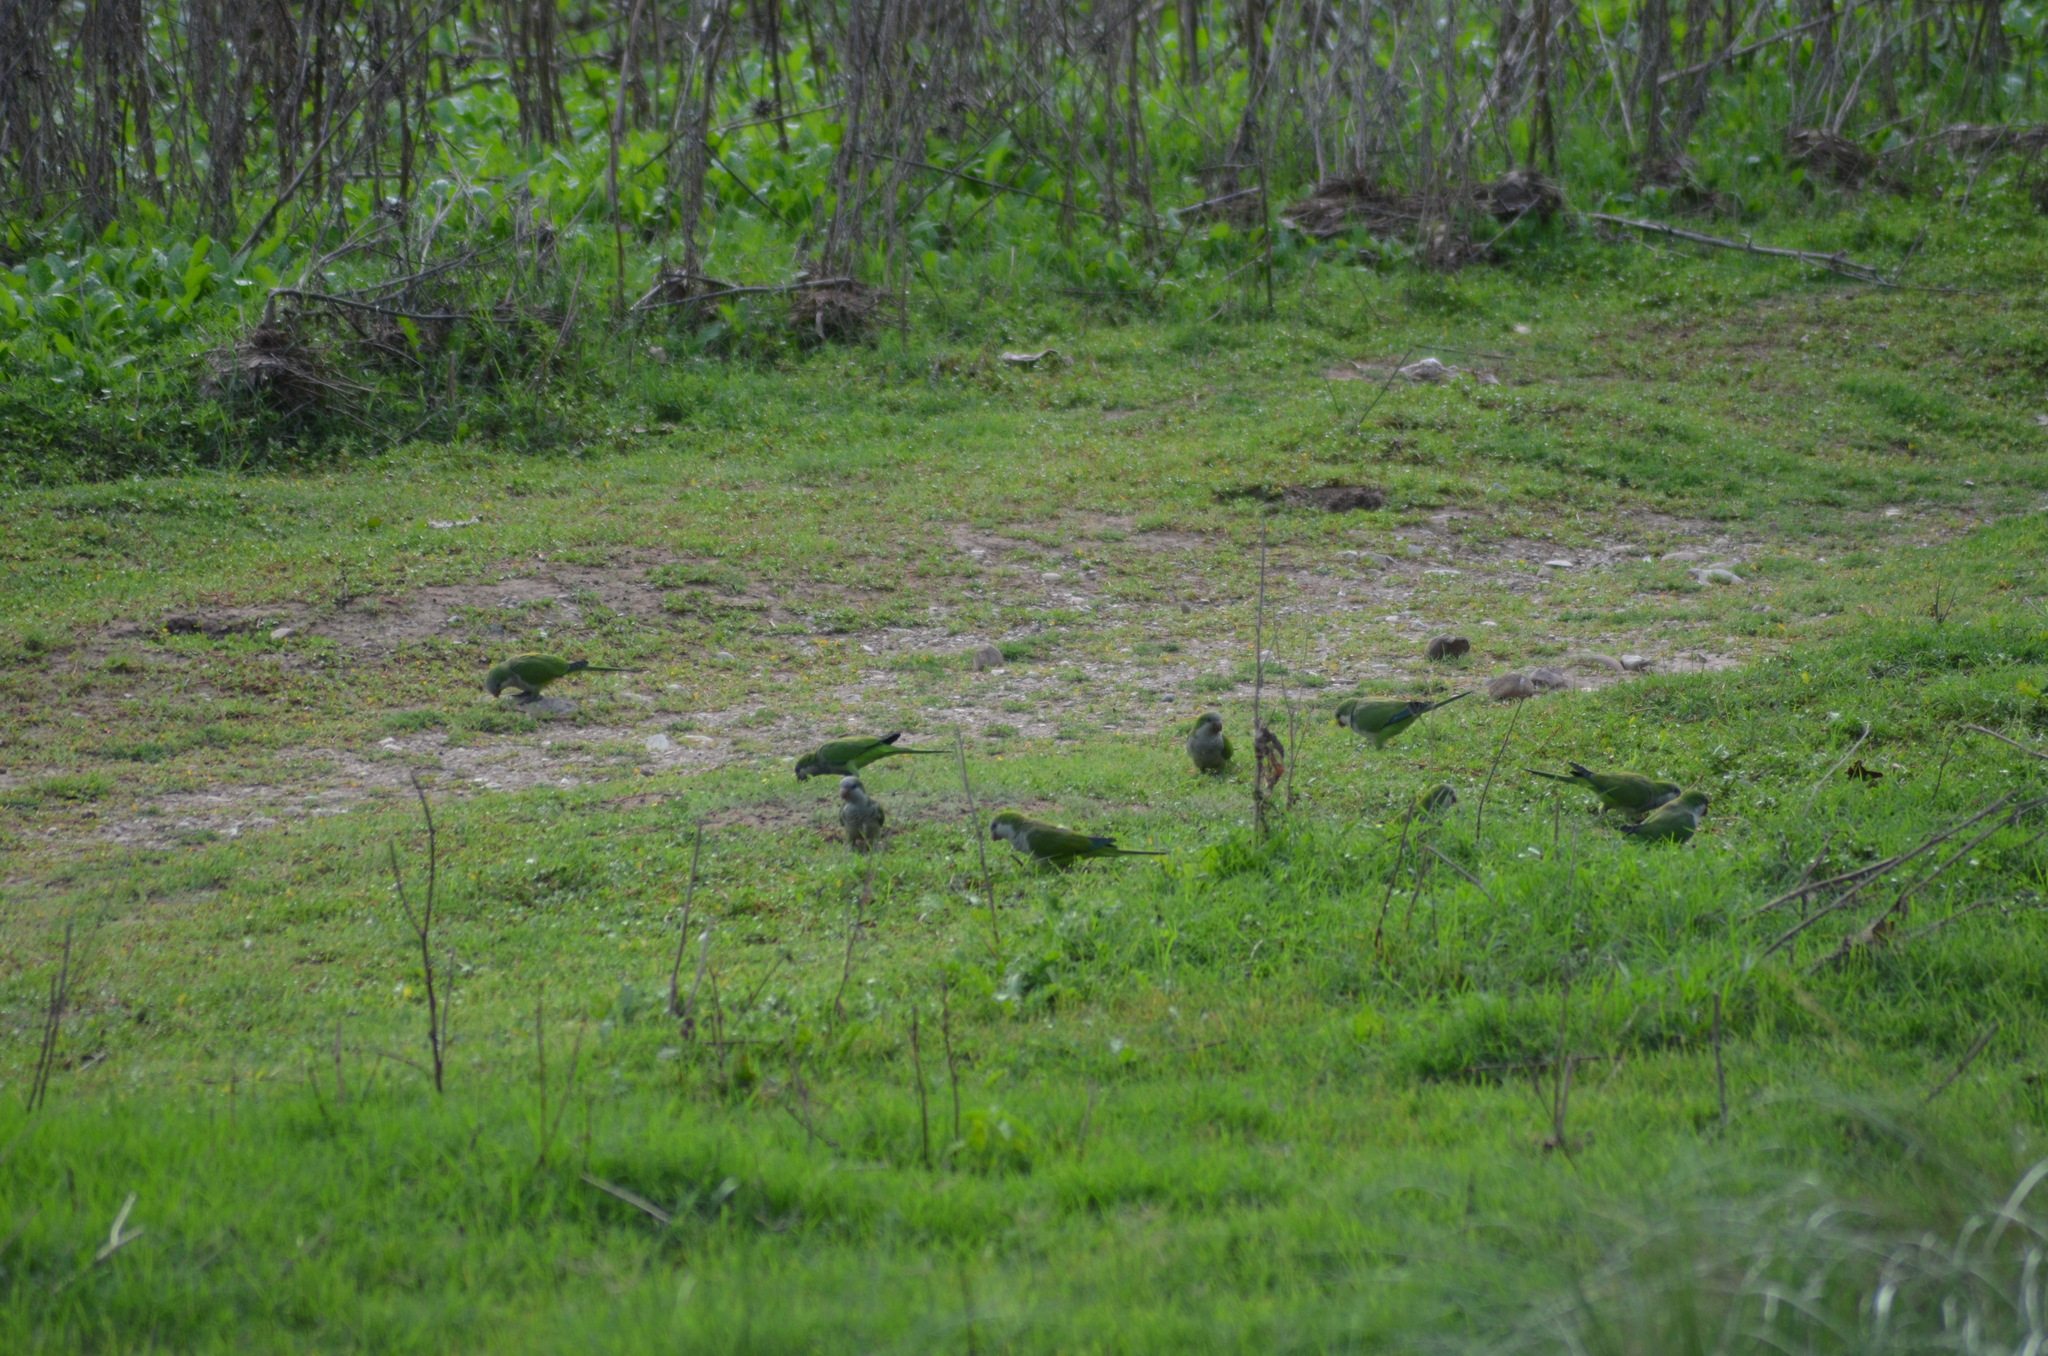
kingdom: Animalia
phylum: Chordata
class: Aves
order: Psittaciformes
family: Psittacidae
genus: Myiopsitta
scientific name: Myiopsitta monachus
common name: Monk parakeet
